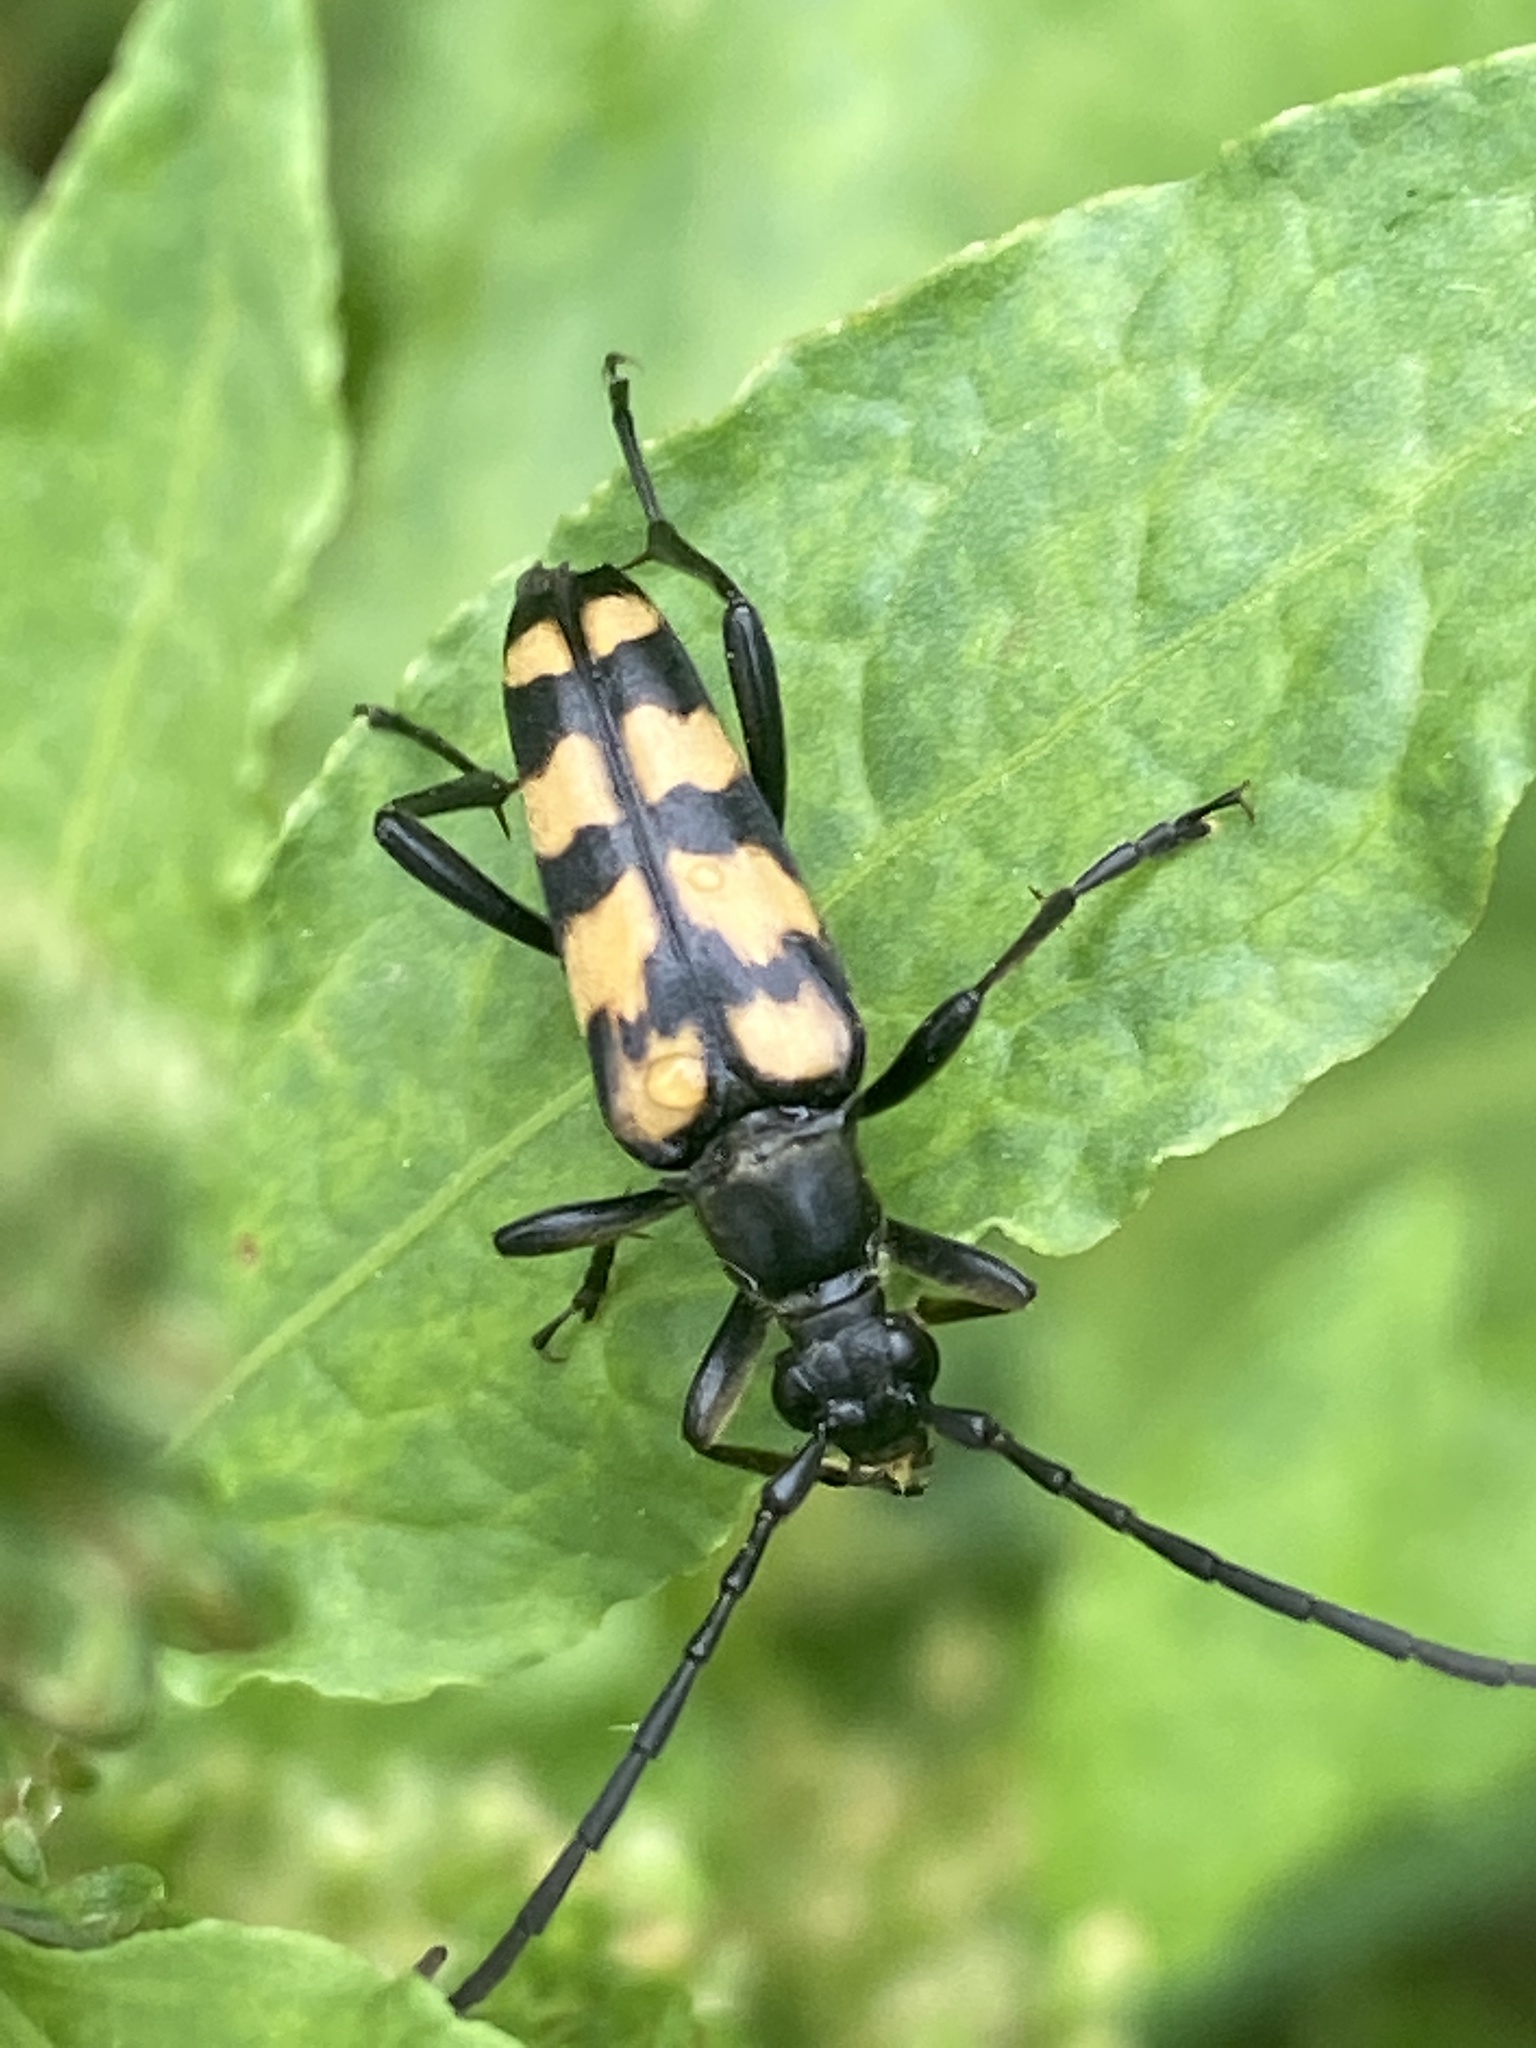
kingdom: Animalia
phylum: Arthropoda
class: Insecta
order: Coleoptera
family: Cerambycidae
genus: Leptura
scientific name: Leptura quadrifasciata
